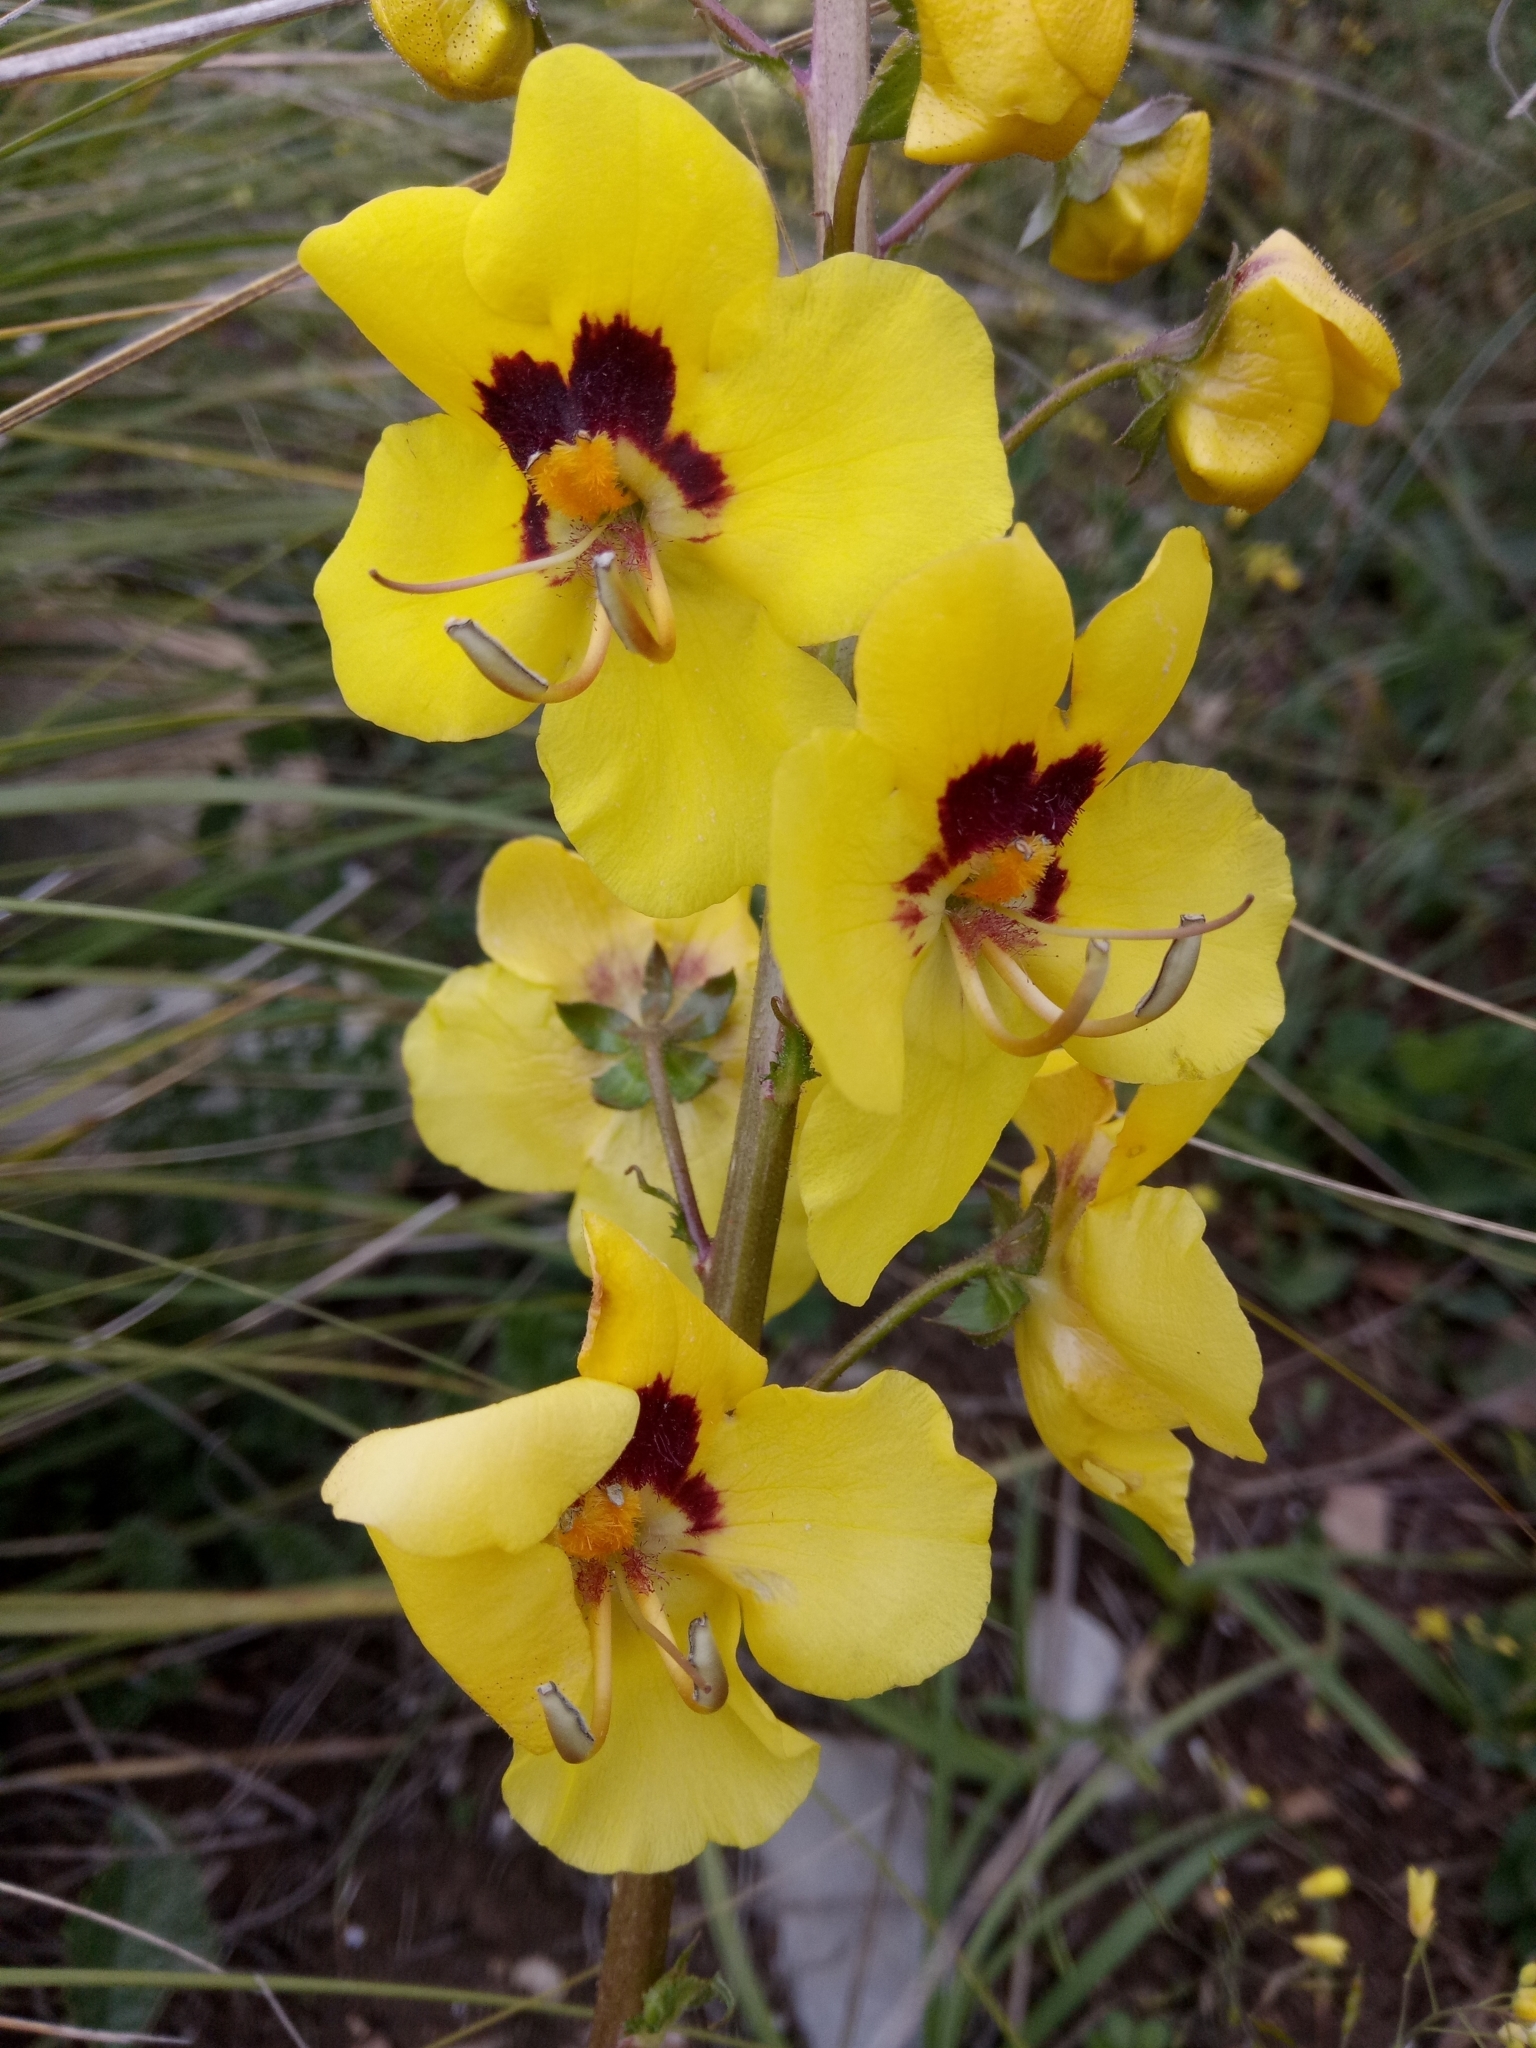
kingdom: Plantae
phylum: Tracheophyta
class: Magnoliopsida
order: Lamiales
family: Scrophulariaceae
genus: Verbascum
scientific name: Verbascum betonicifolium
